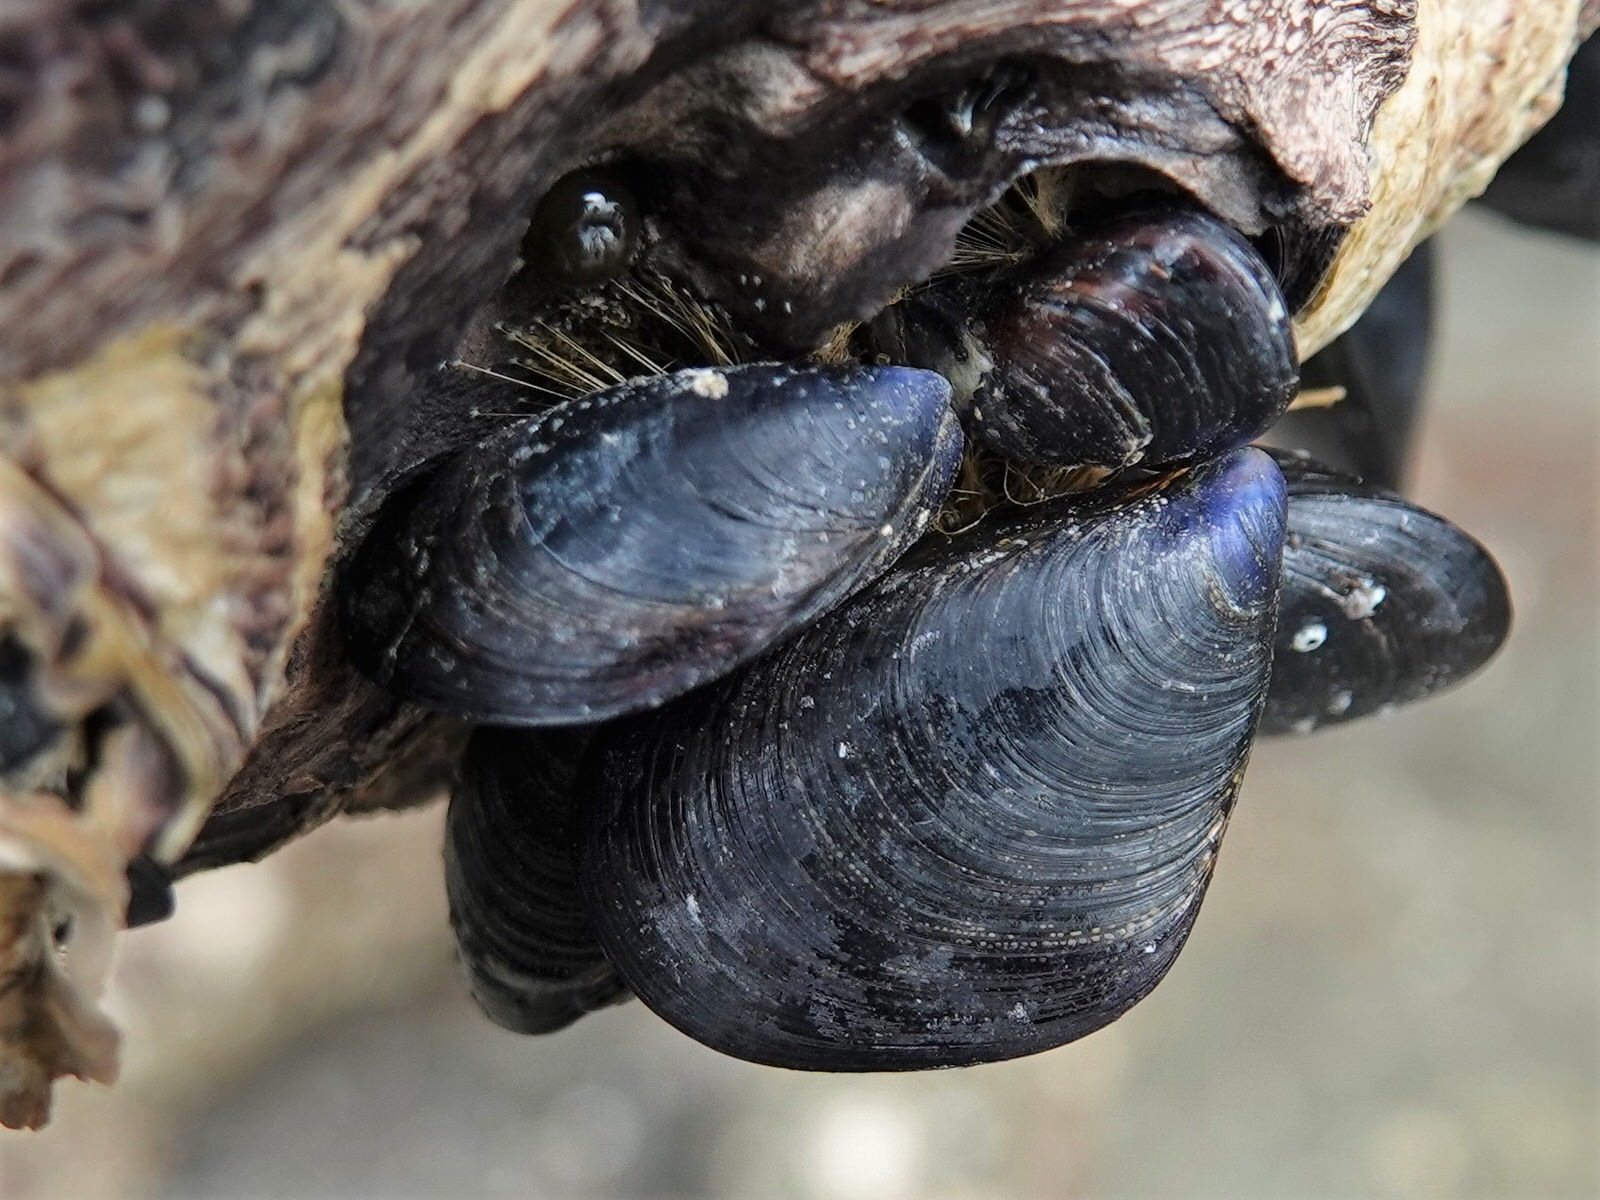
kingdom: Animalia
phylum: Mollusca
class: Bivalvia
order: Mytilida
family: Mytilidae
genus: Mytilus
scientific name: Mytilus planulatus
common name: Australian mussel
